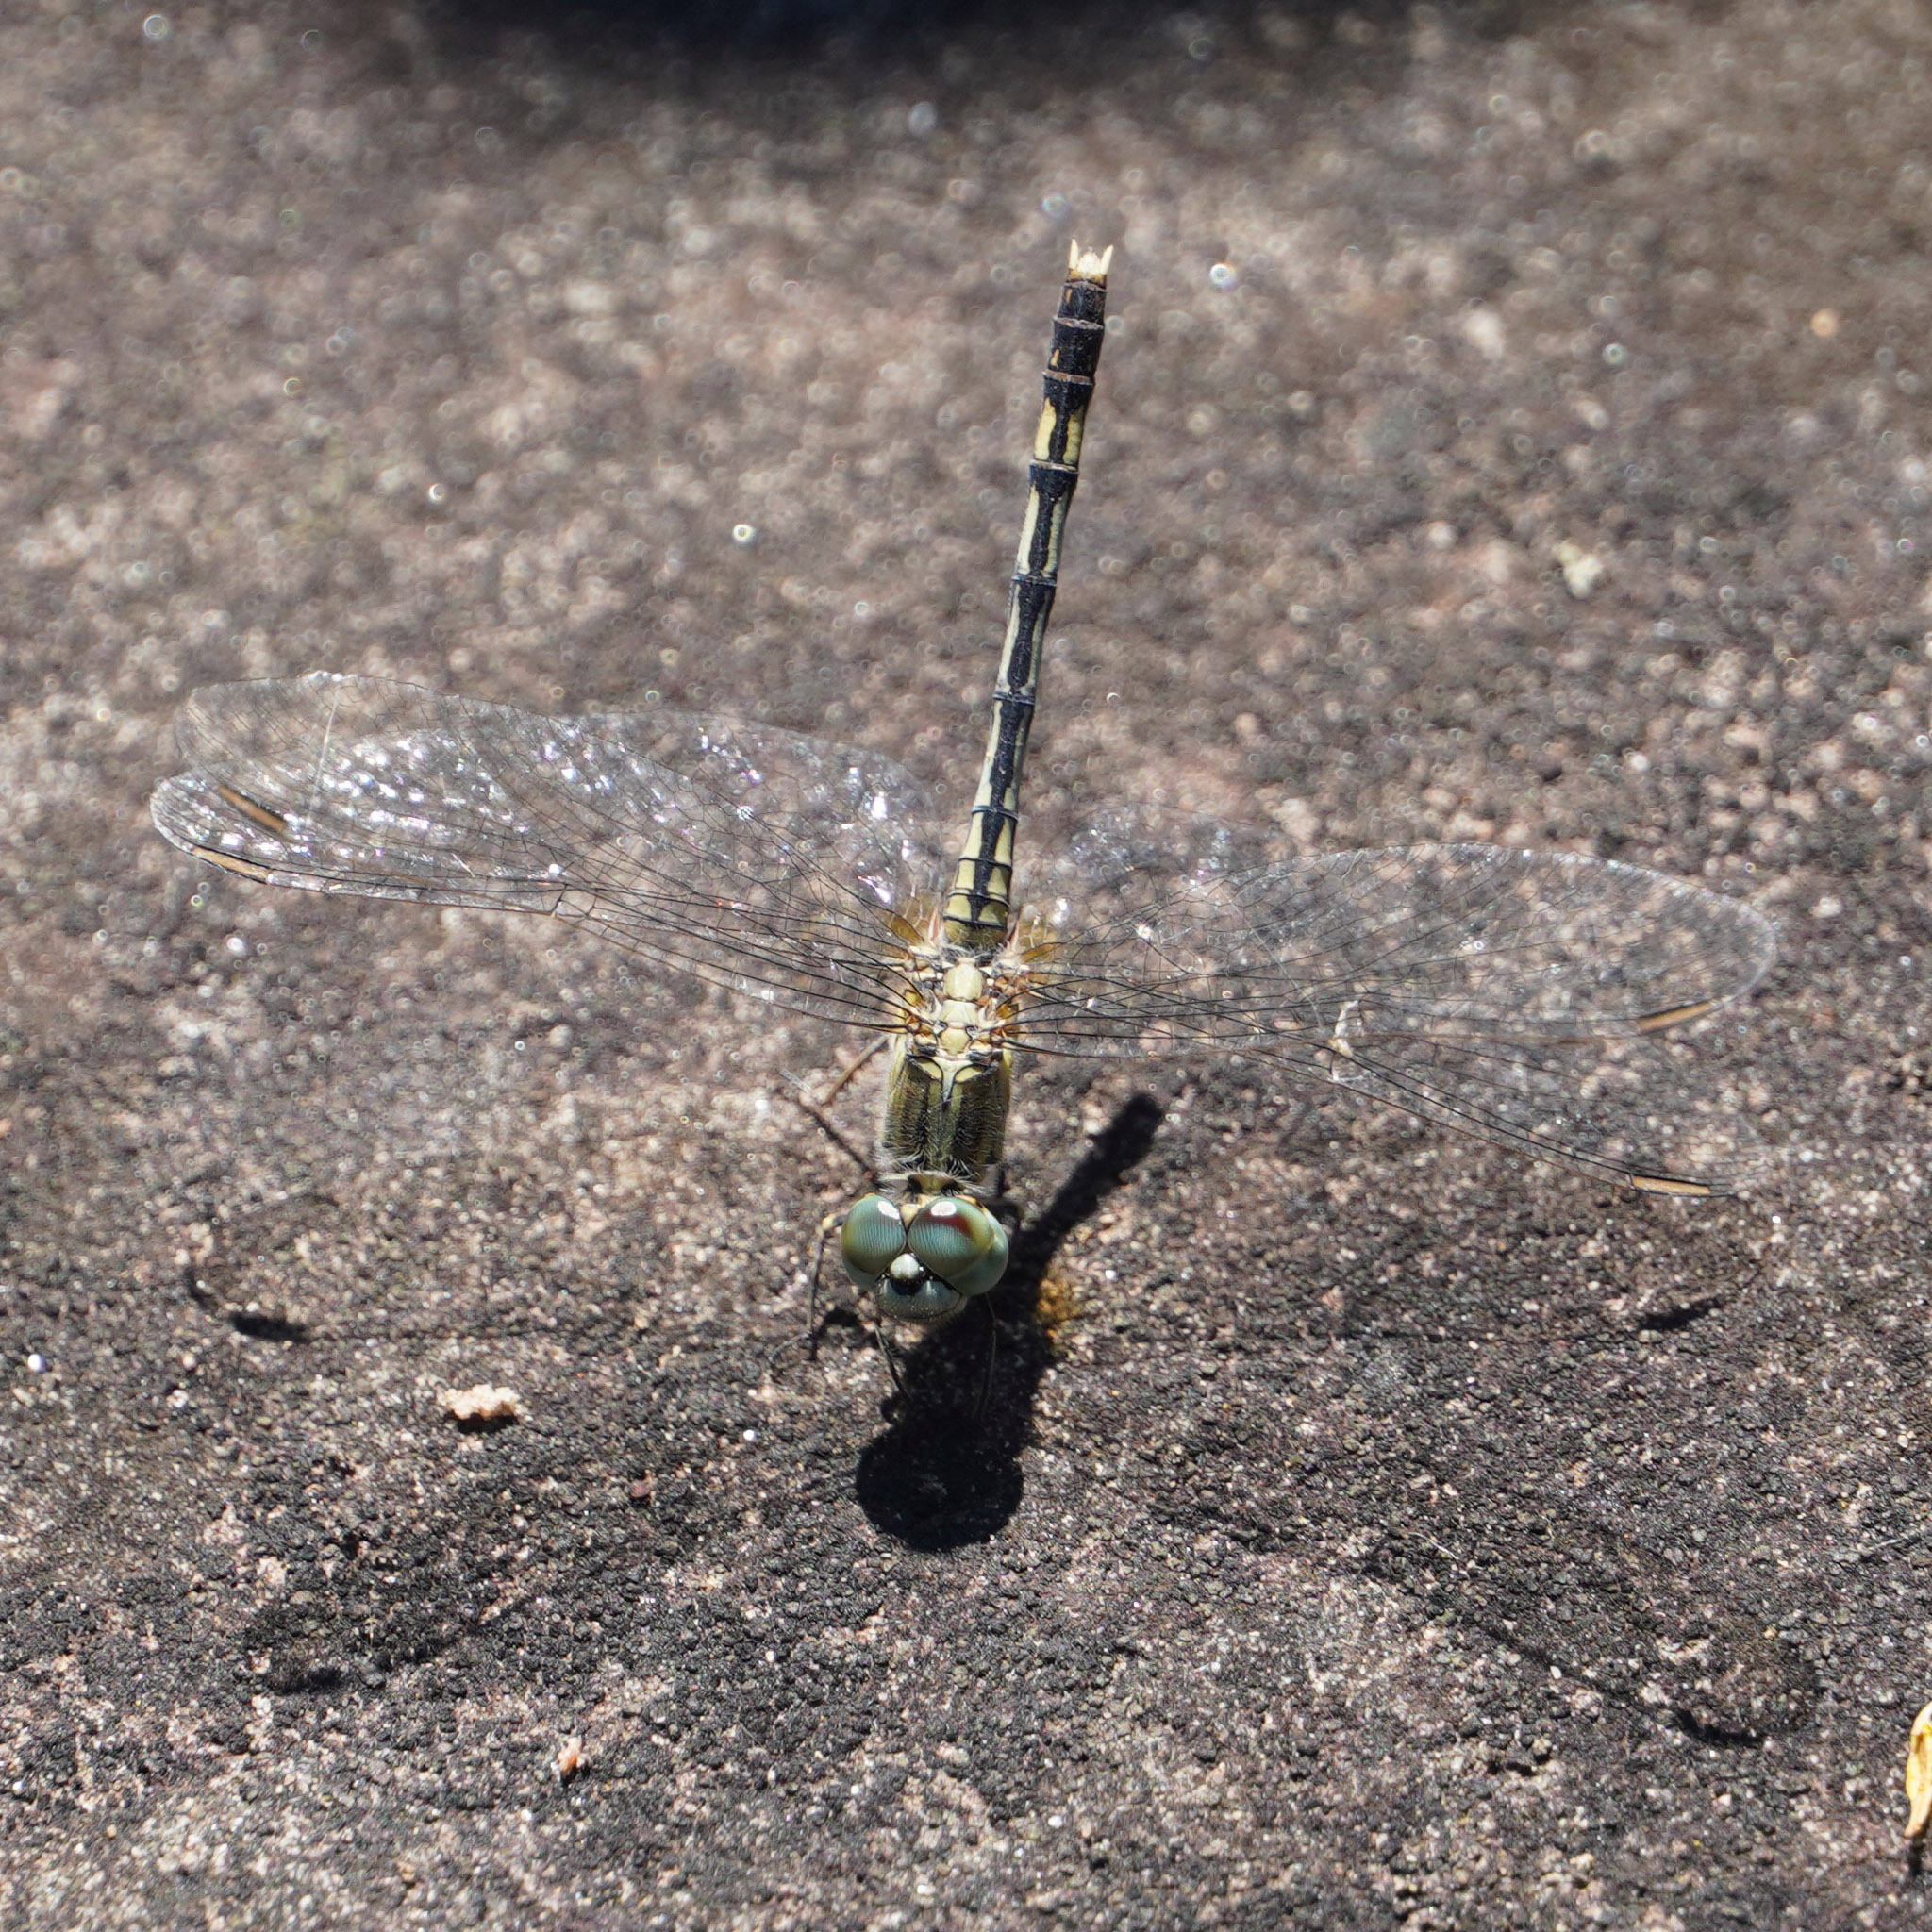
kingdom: Animalia
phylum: Arthropoda
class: Insecta
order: Odonata
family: Libellulidae
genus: Diplacodes
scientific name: Diplacodes trivialis
